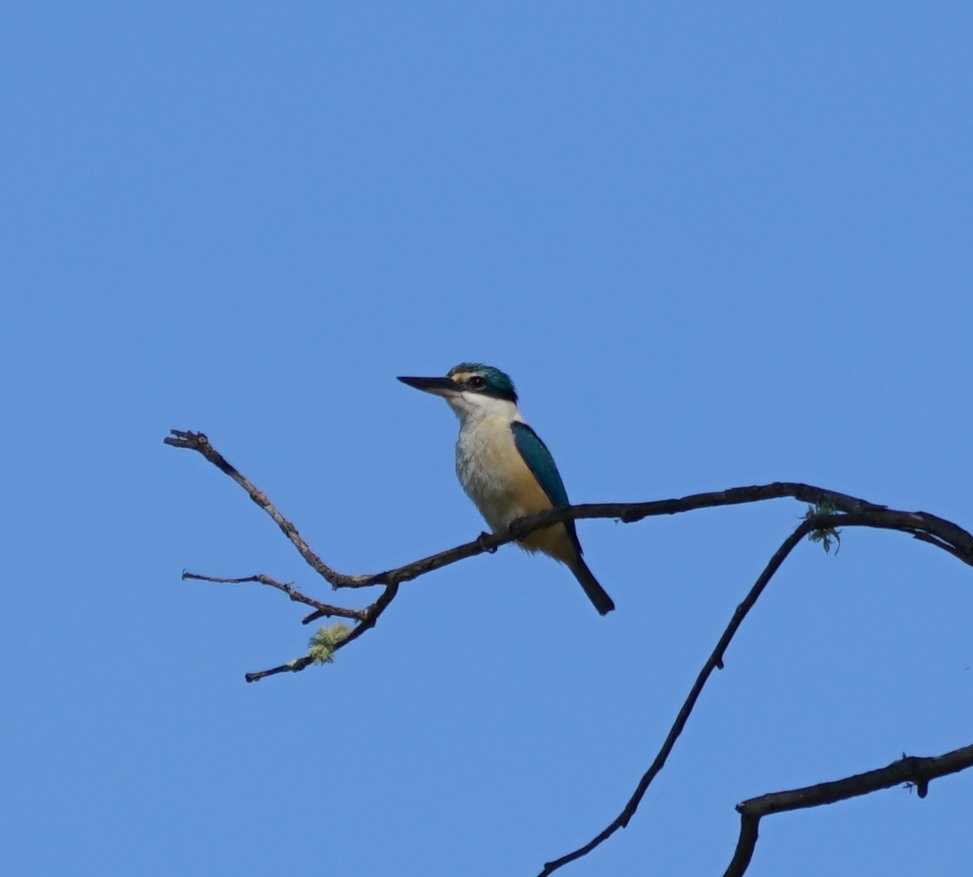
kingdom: Animalia
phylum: Chordata
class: Aves
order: Coraciiformes
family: Alcedinidae
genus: Todiramphus
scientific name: Todiramphus sanctus
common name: Sacred kingfisher
